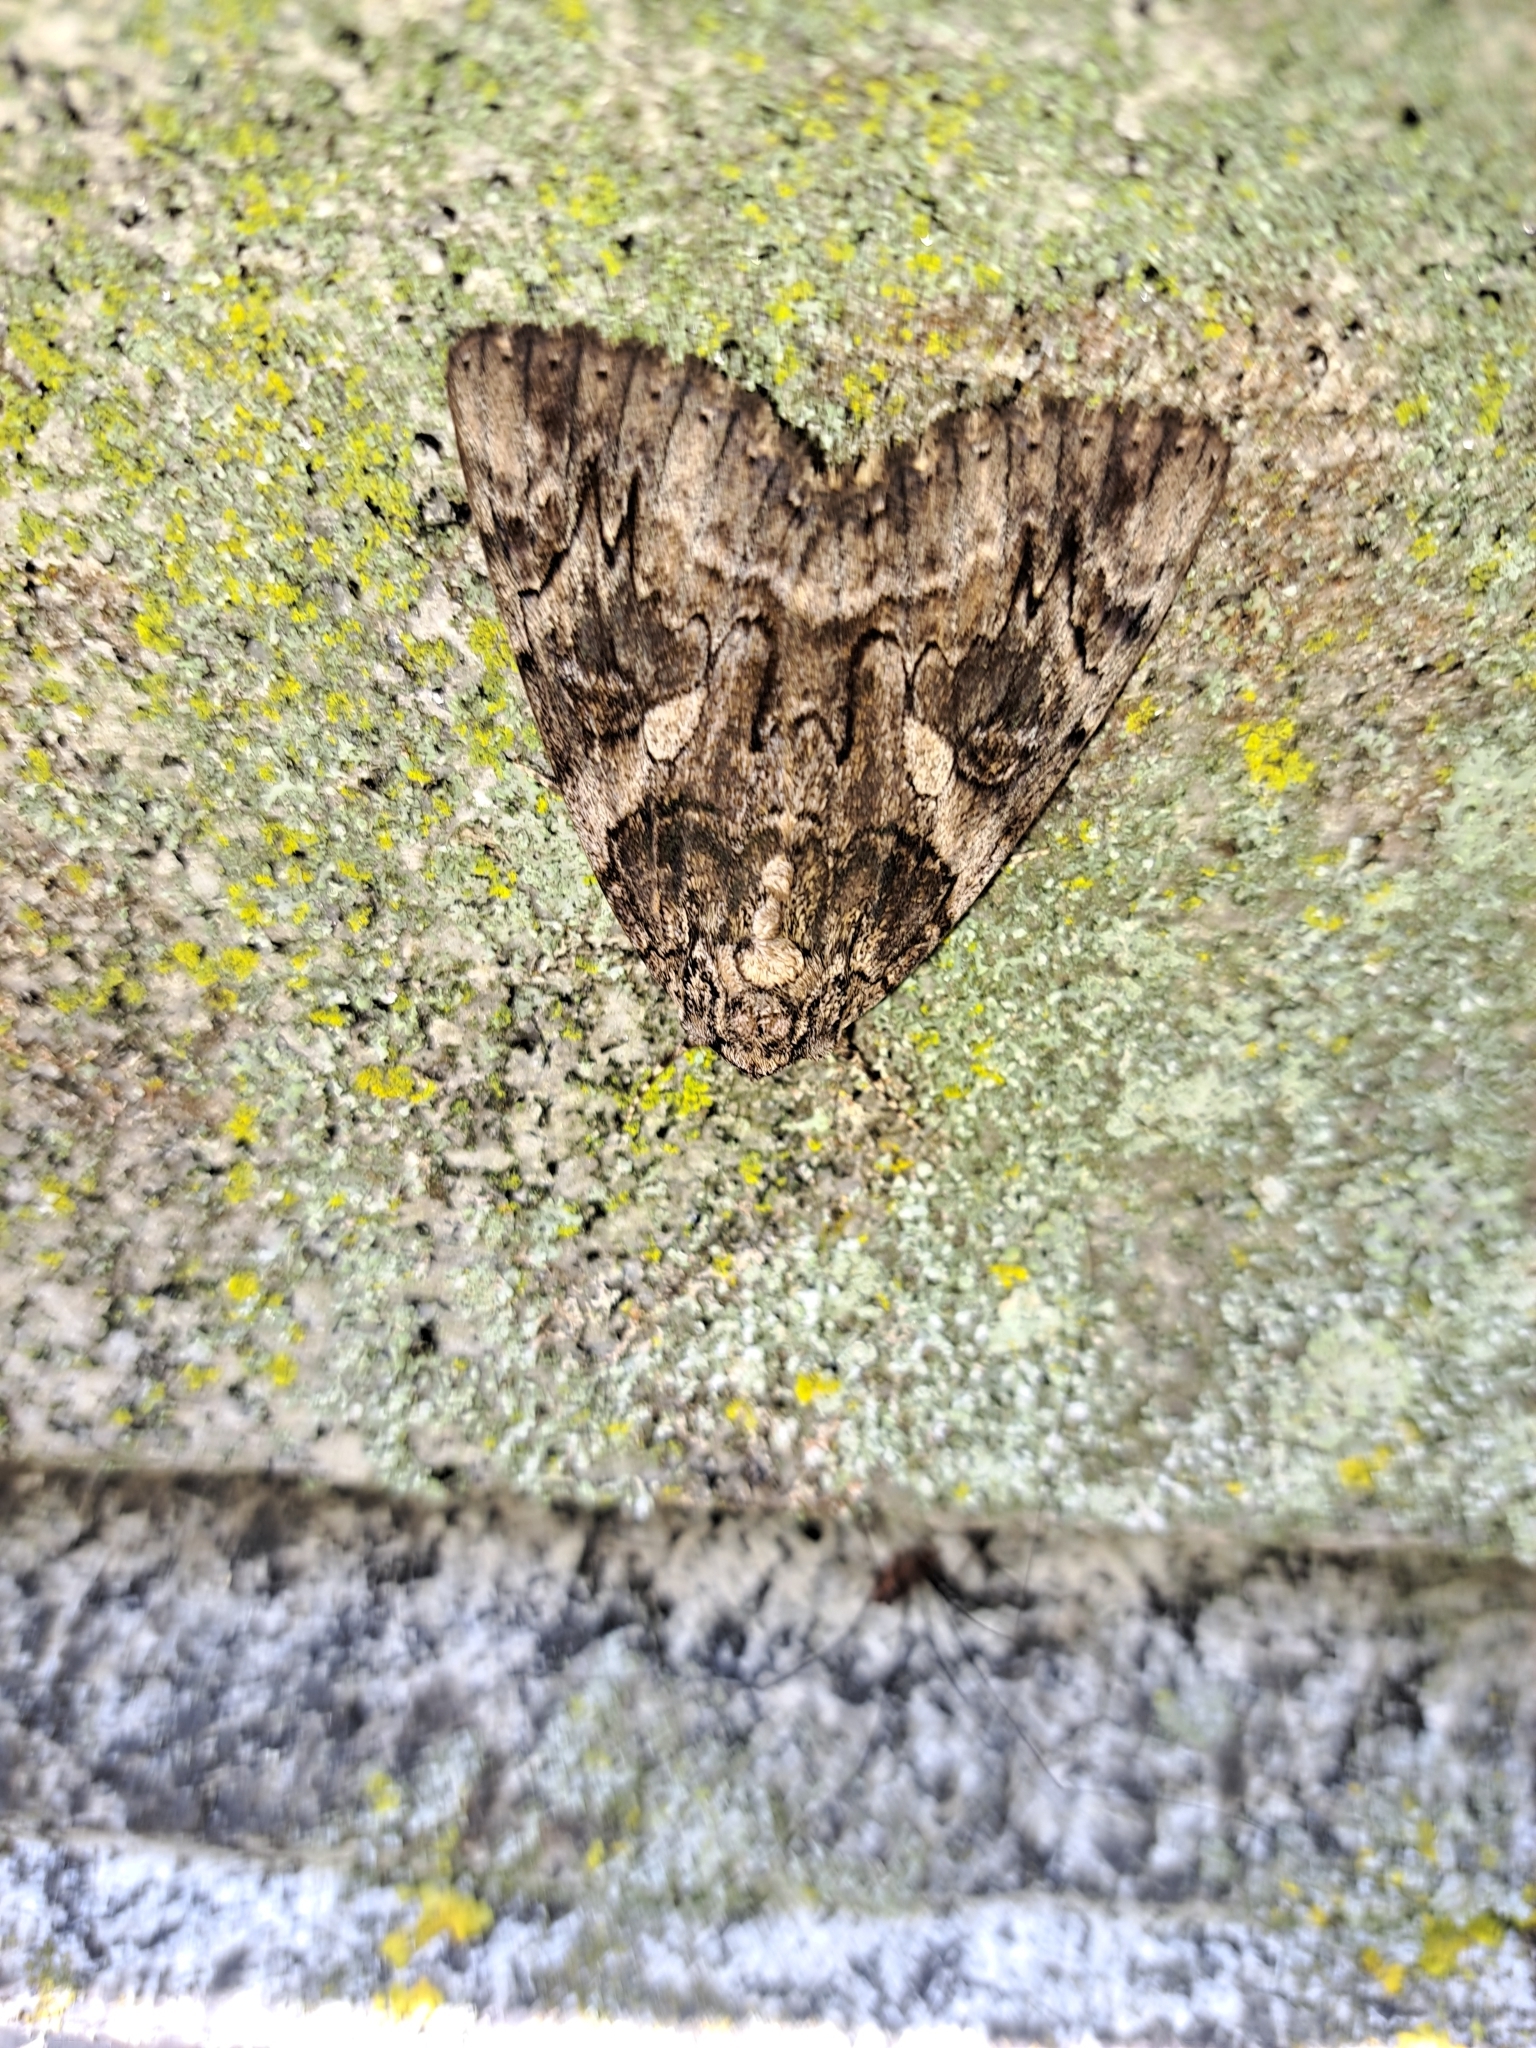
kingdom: Animalia
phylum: Arthropoda
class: Insecta
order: Lepidoptera
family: Erebidae
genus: Catocala
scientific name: Catocala piatrix
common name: The penitent underwing
